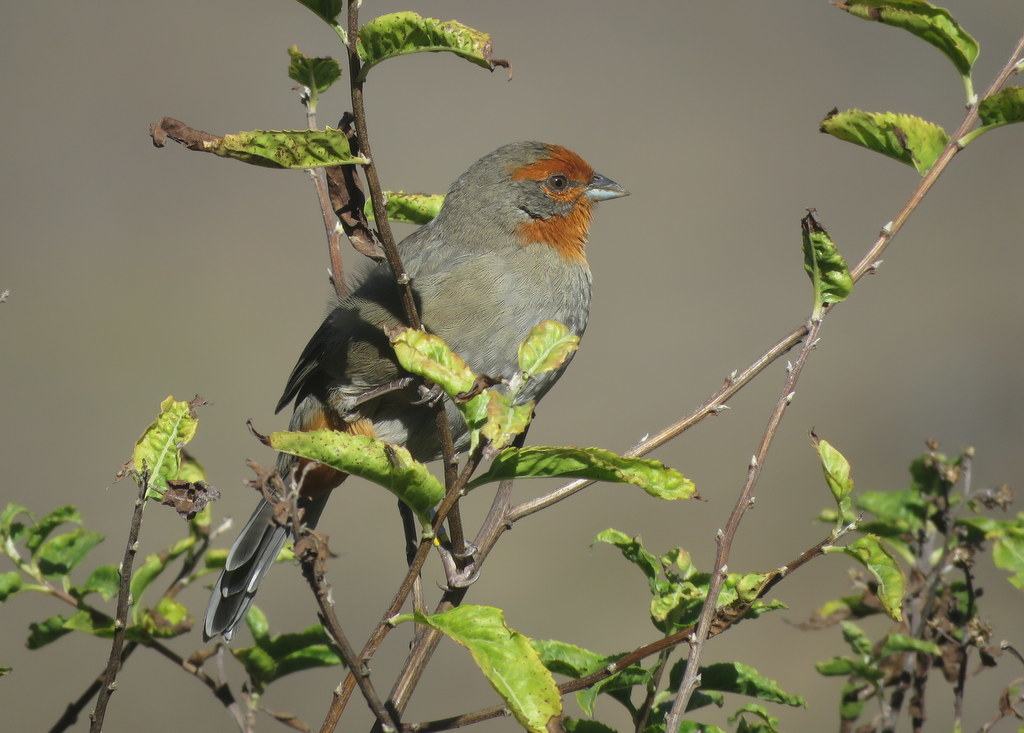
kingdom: Animalia
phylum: Chordata
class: Aves
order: Passeriformes
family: Thraupidae
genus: Poospiza
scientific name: Poospiza baeri
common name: Tucuman mountain-finch
